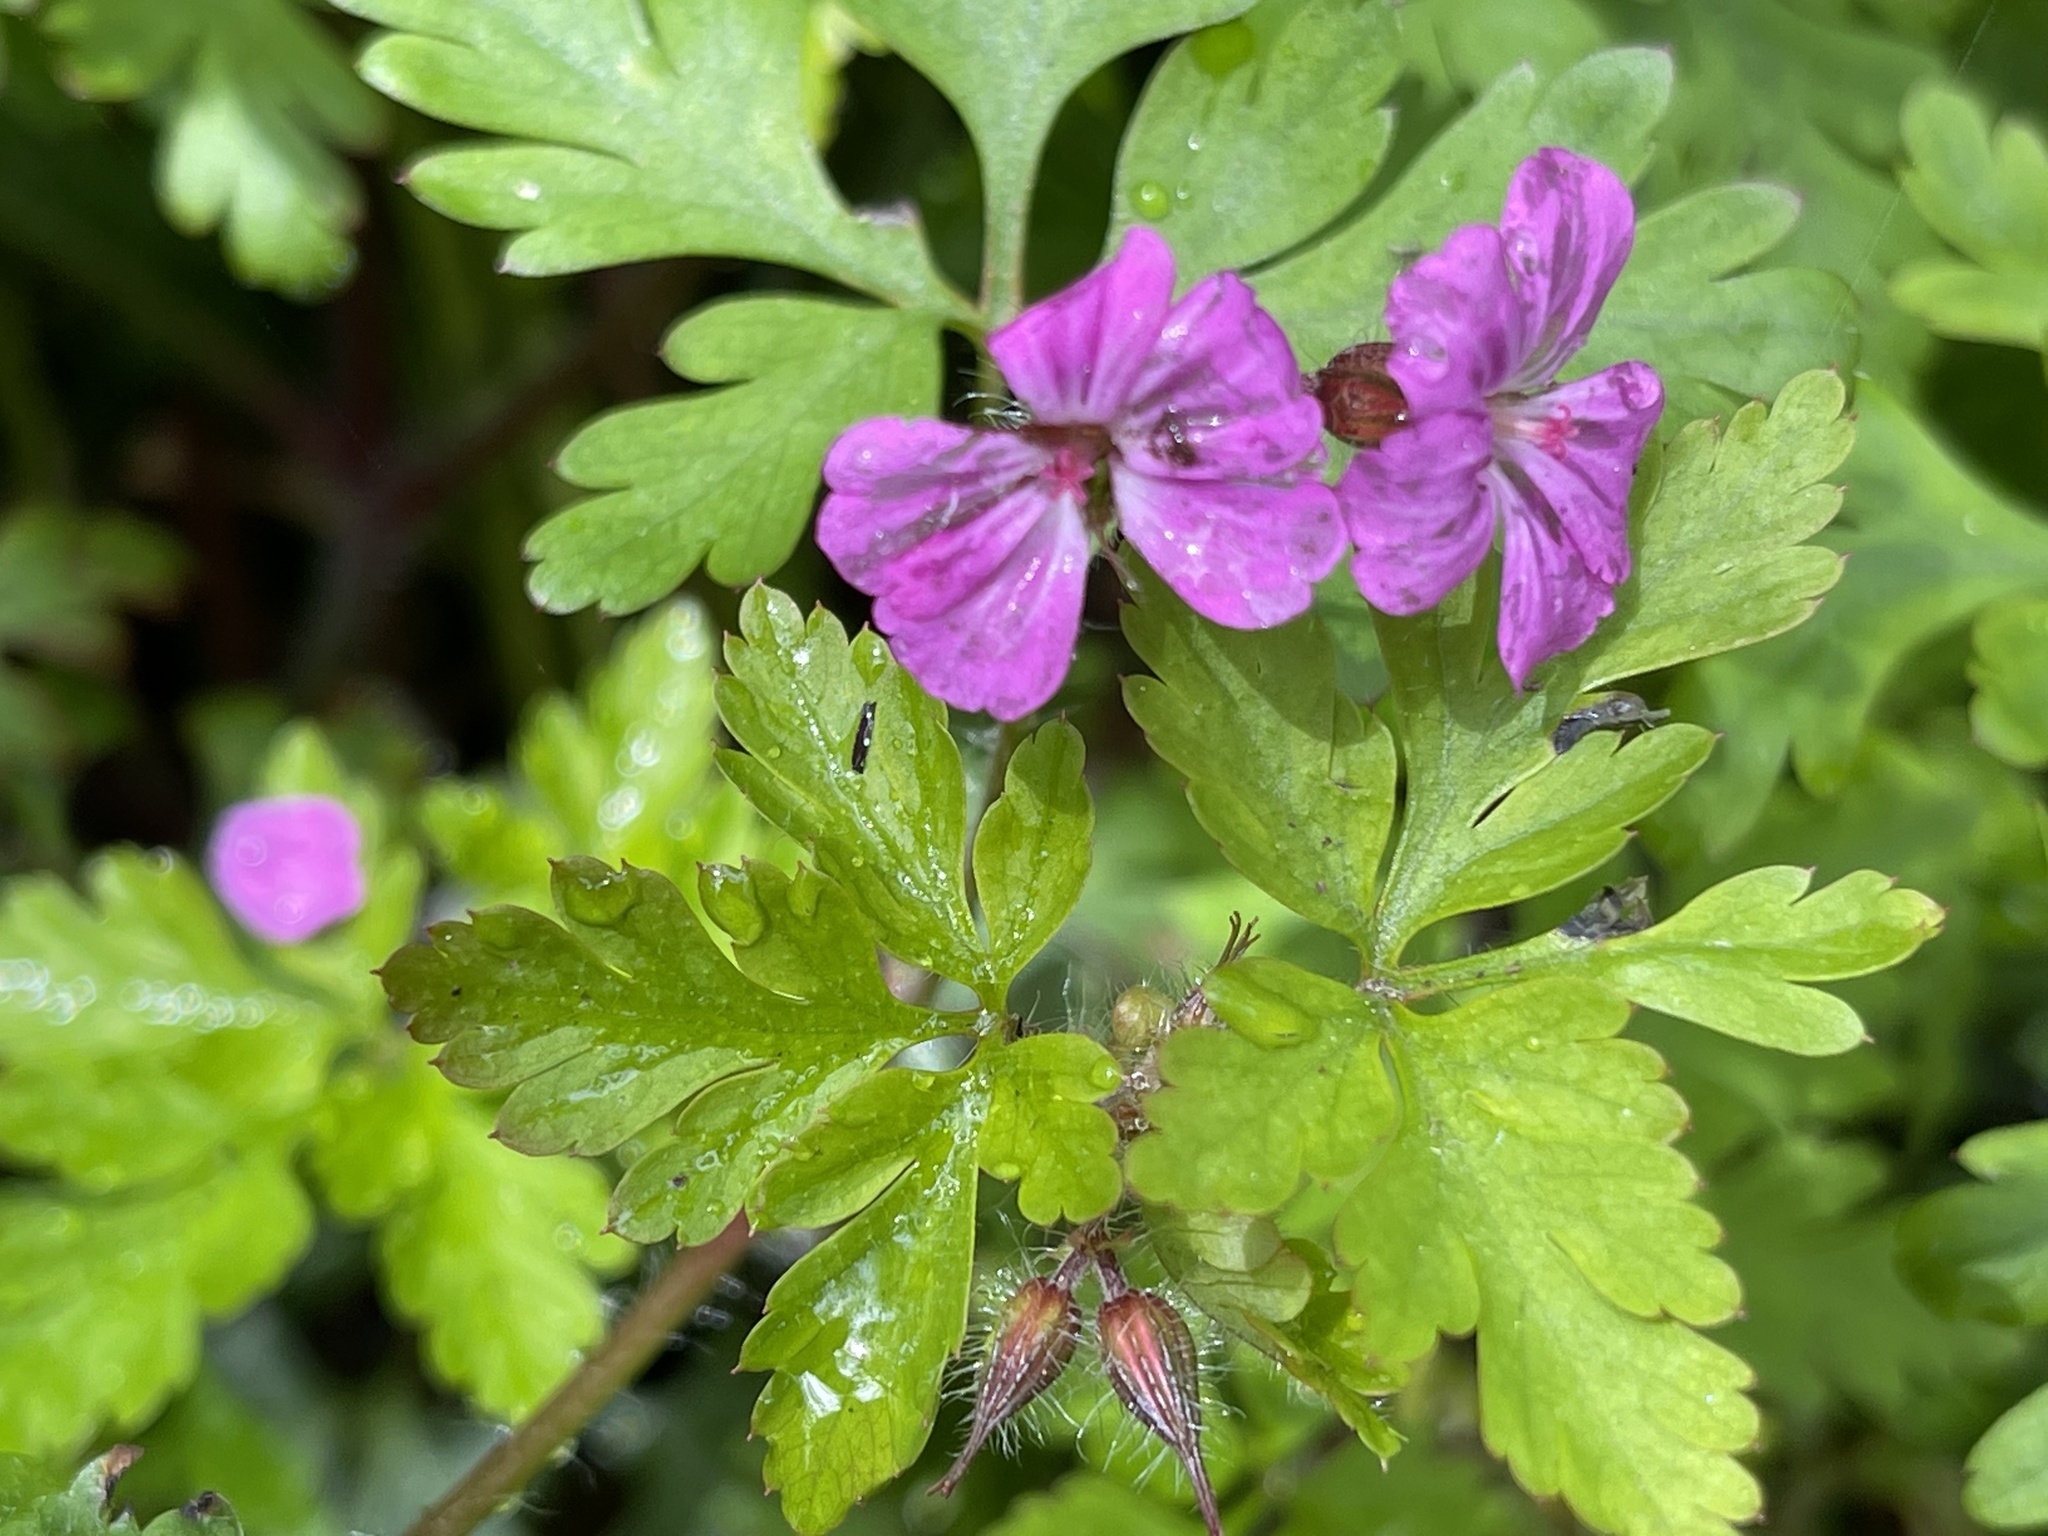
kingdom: Plantae
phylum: Tracheophyta
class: Magnoliopsida
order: Geraniales
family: Geraniaceae
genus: Geranium
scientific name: Geranium robertianum
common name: Herb-robert
